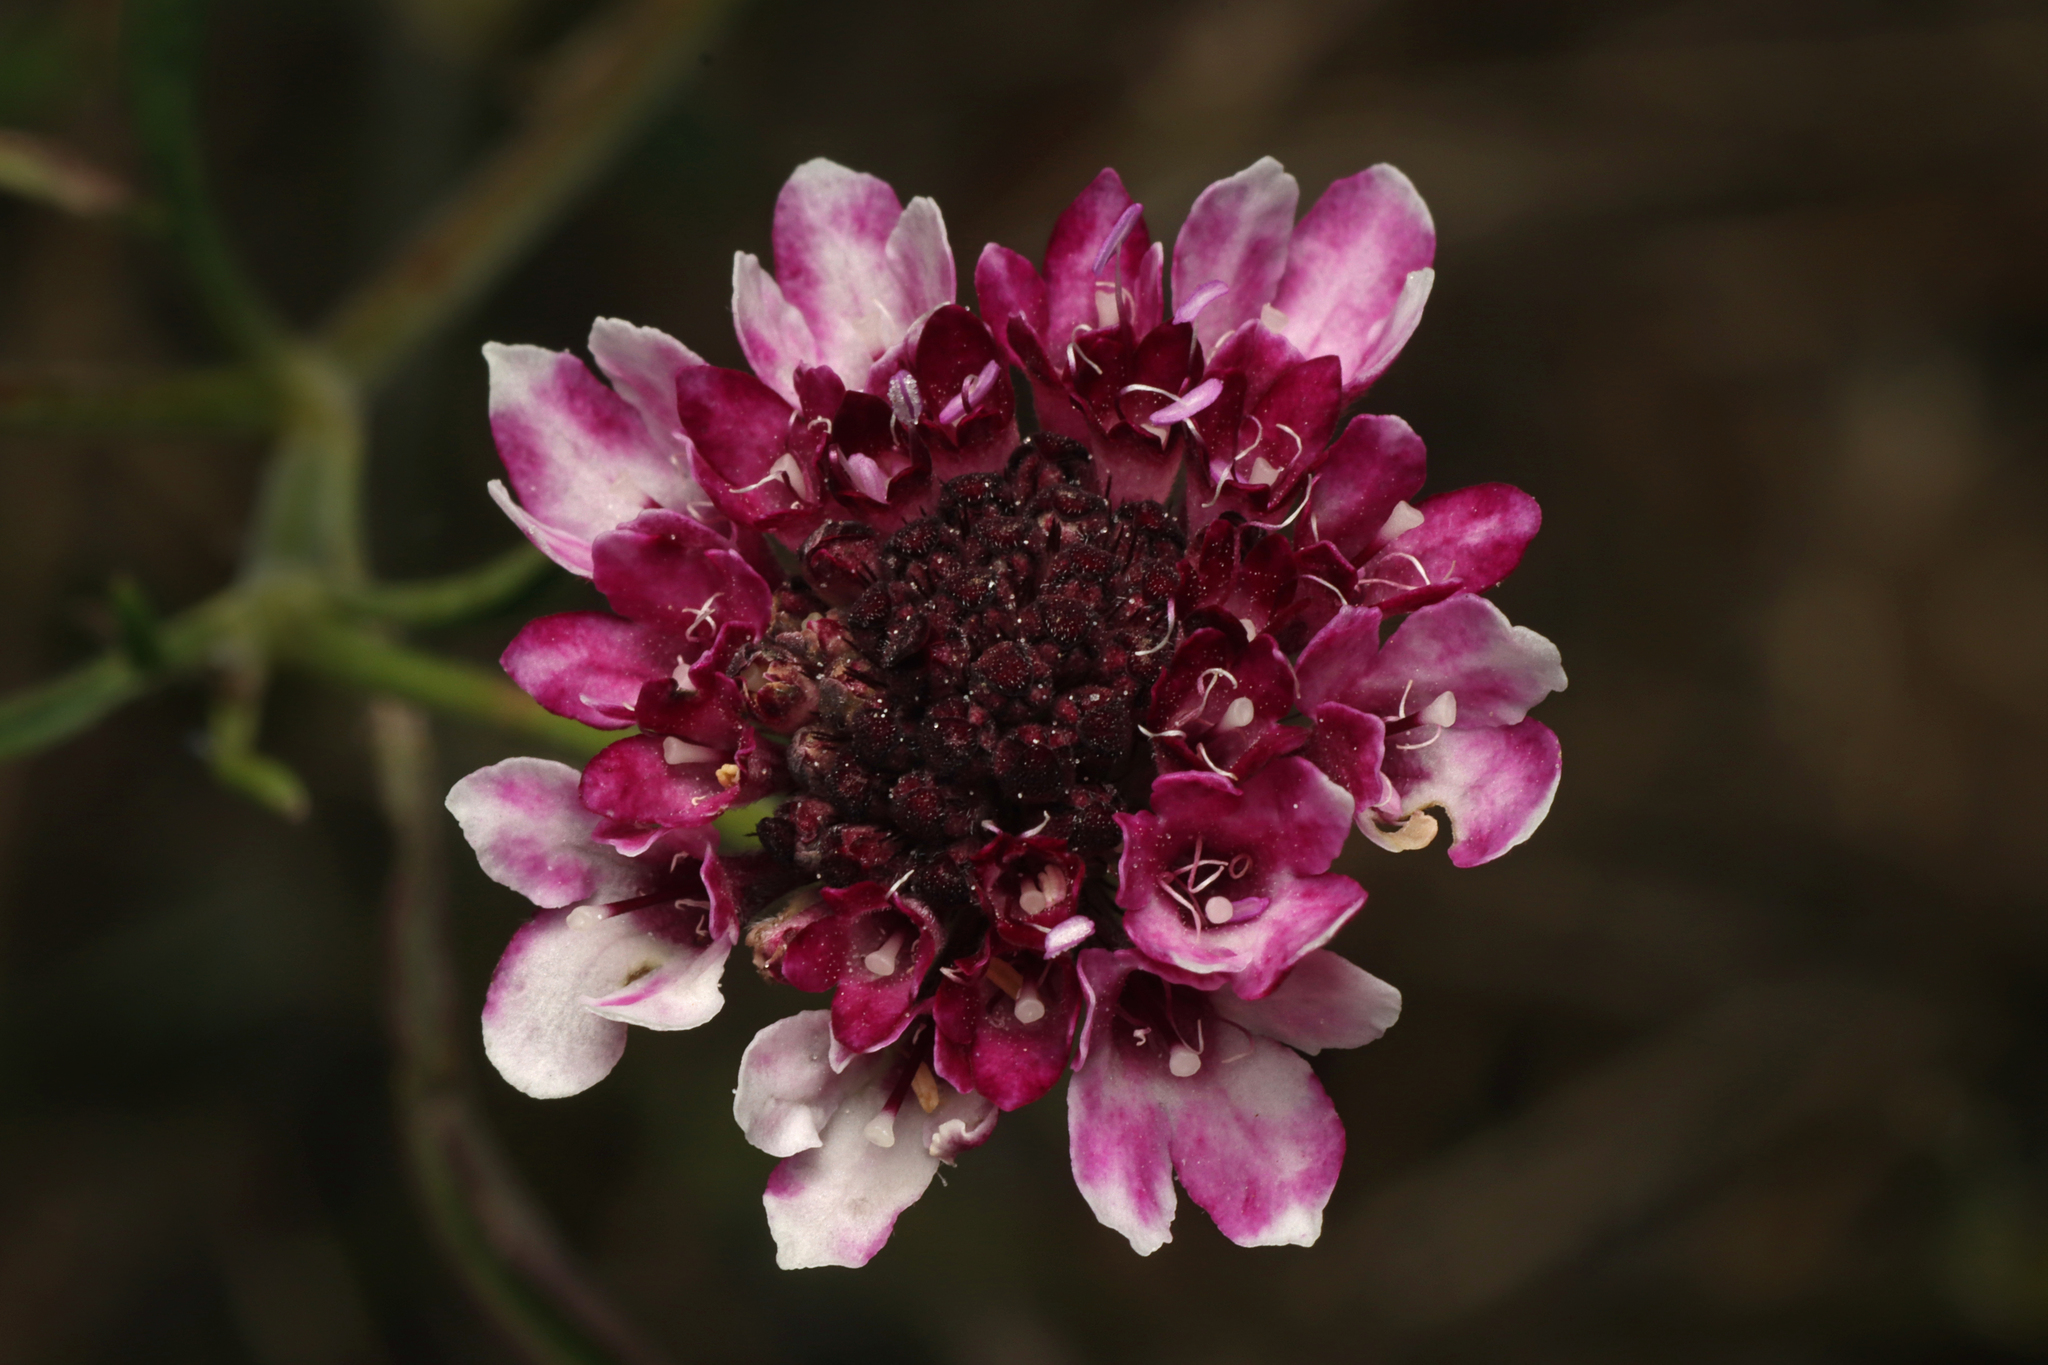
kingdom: Plantae
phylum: Tracheophyta
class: Magnoliopsida
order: Dipsacales
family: Caprifoliaceae
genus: Sixalix
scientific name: Sixalix atropurpurea
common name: Sweet scabious
